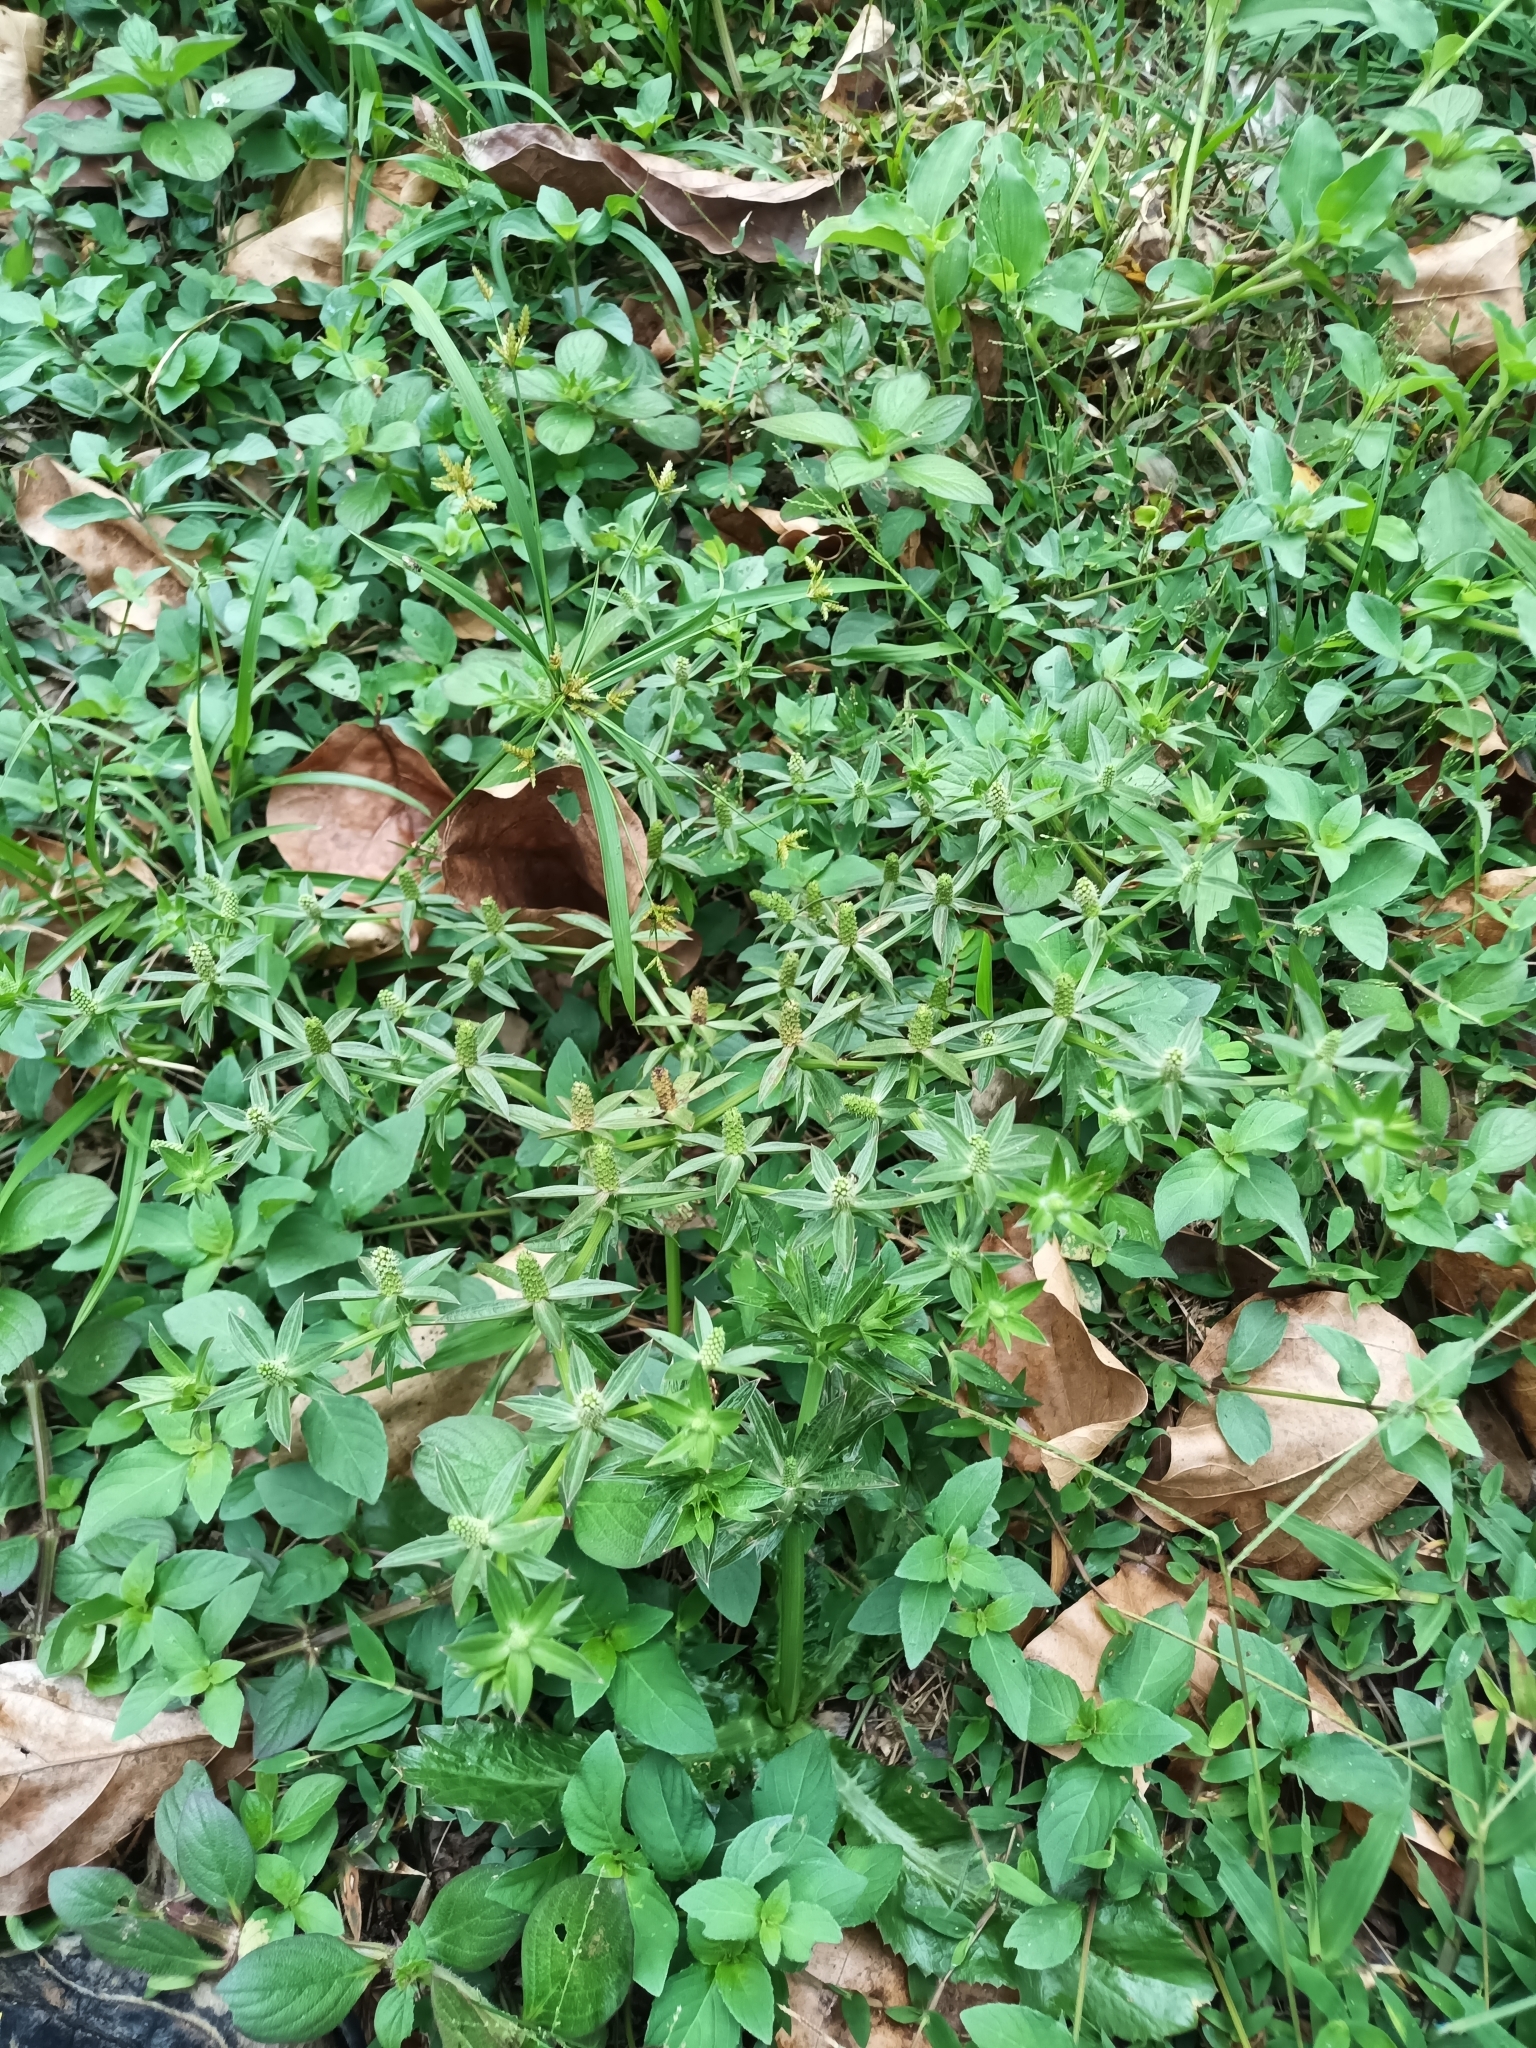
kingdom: Plantae
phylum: Tracheophyta
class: Magnoliopsida
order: Apiales
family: Apiaceae
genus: Eryngium
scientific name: Eryngium foetidum
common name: Fitweed
